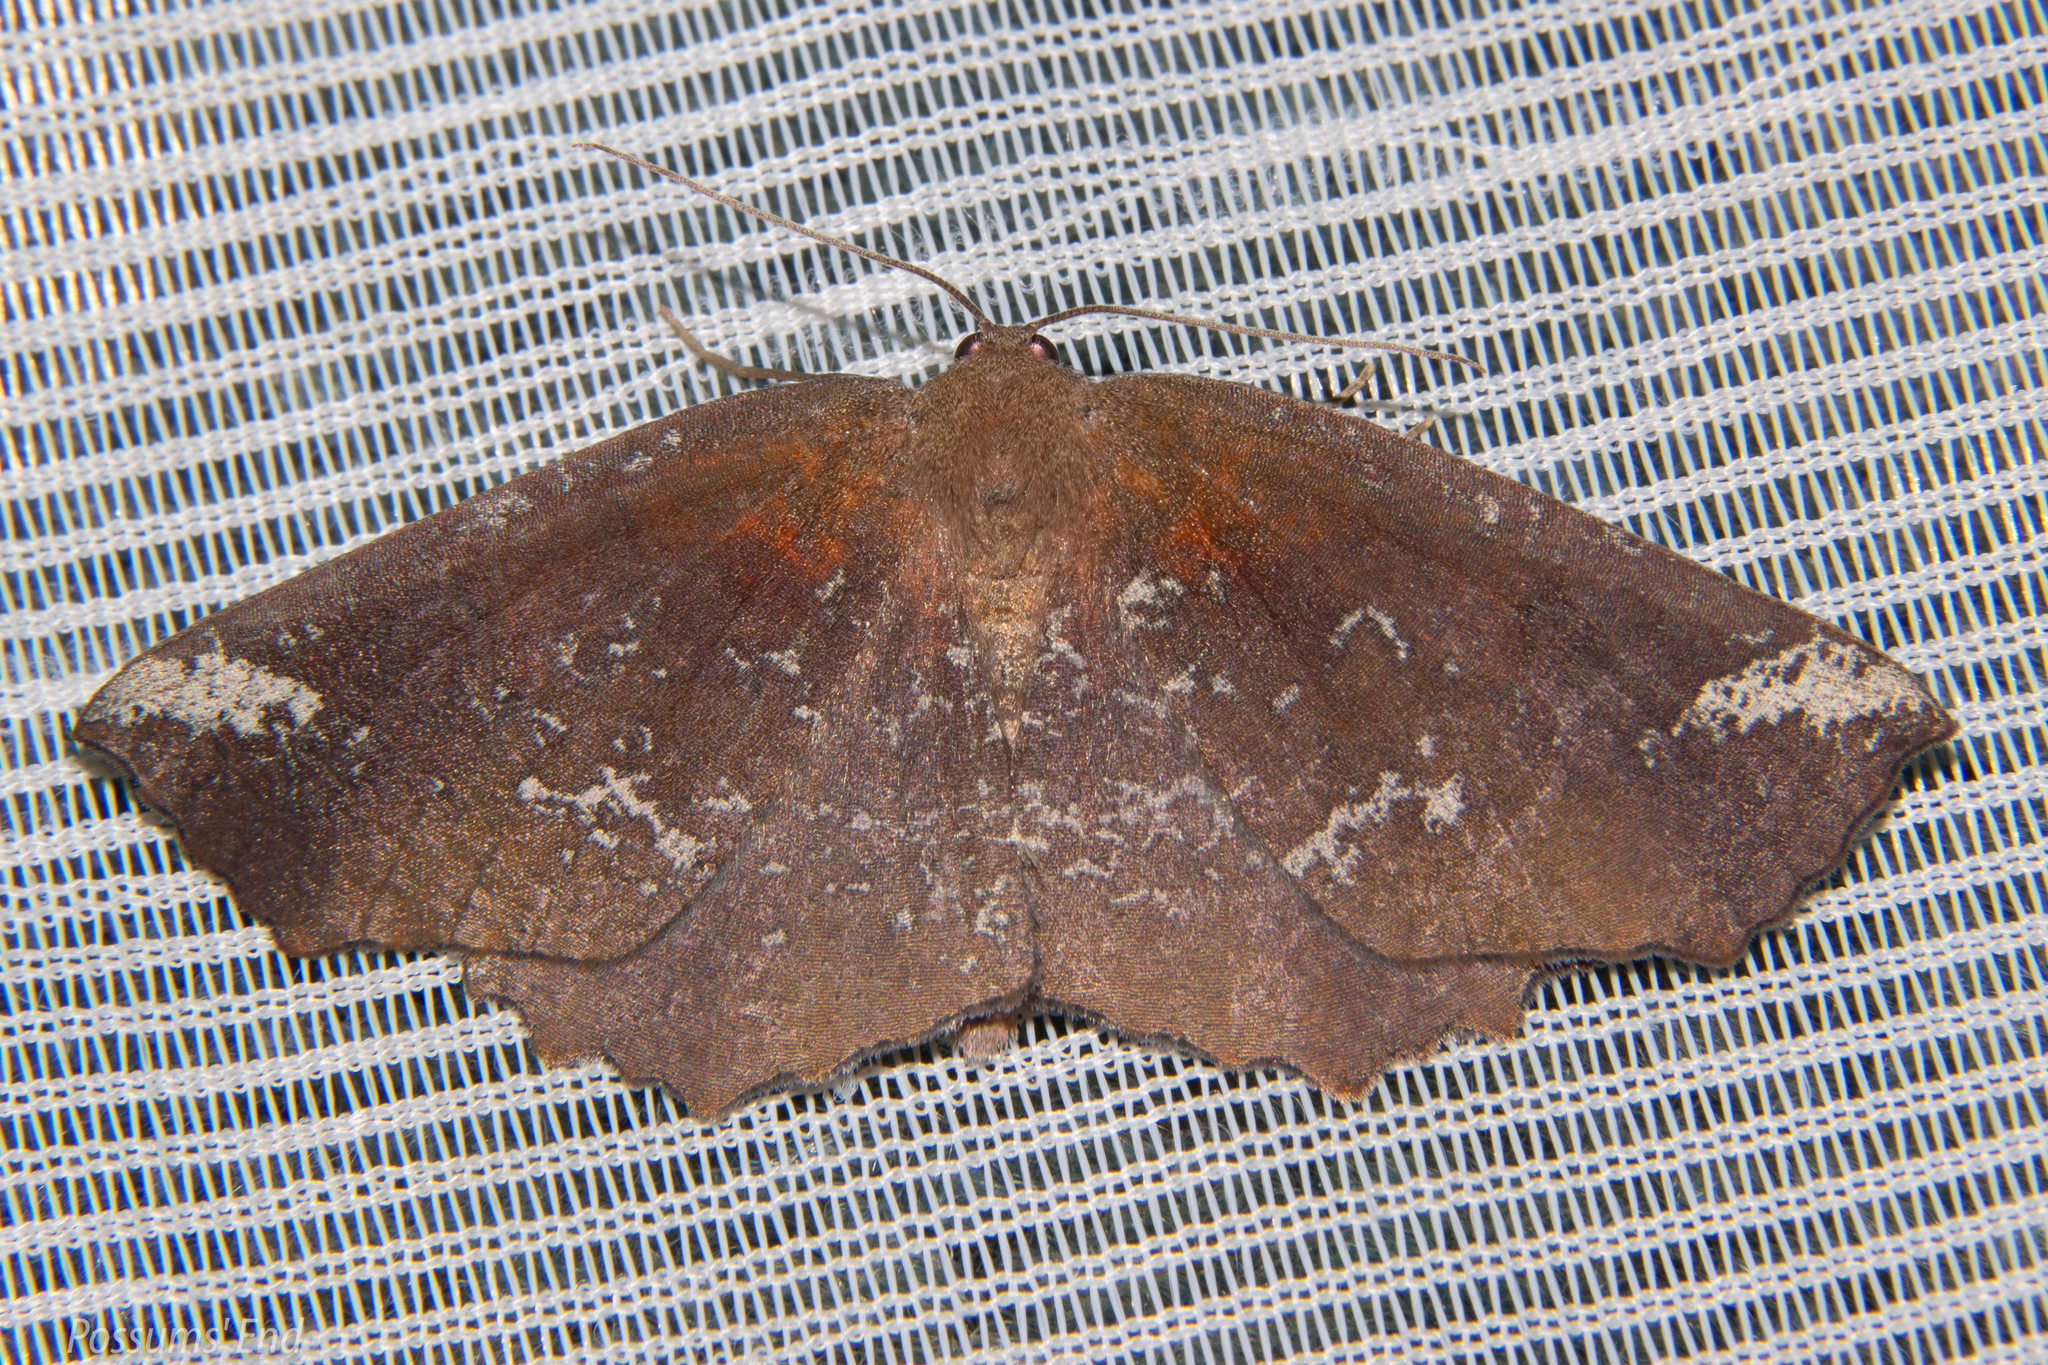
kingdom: Animalia
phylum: Arthropoda
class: Insecta
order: Lepidoptera
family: Geometridae
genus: Xyridacma
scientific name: Xyridacma ustaria
